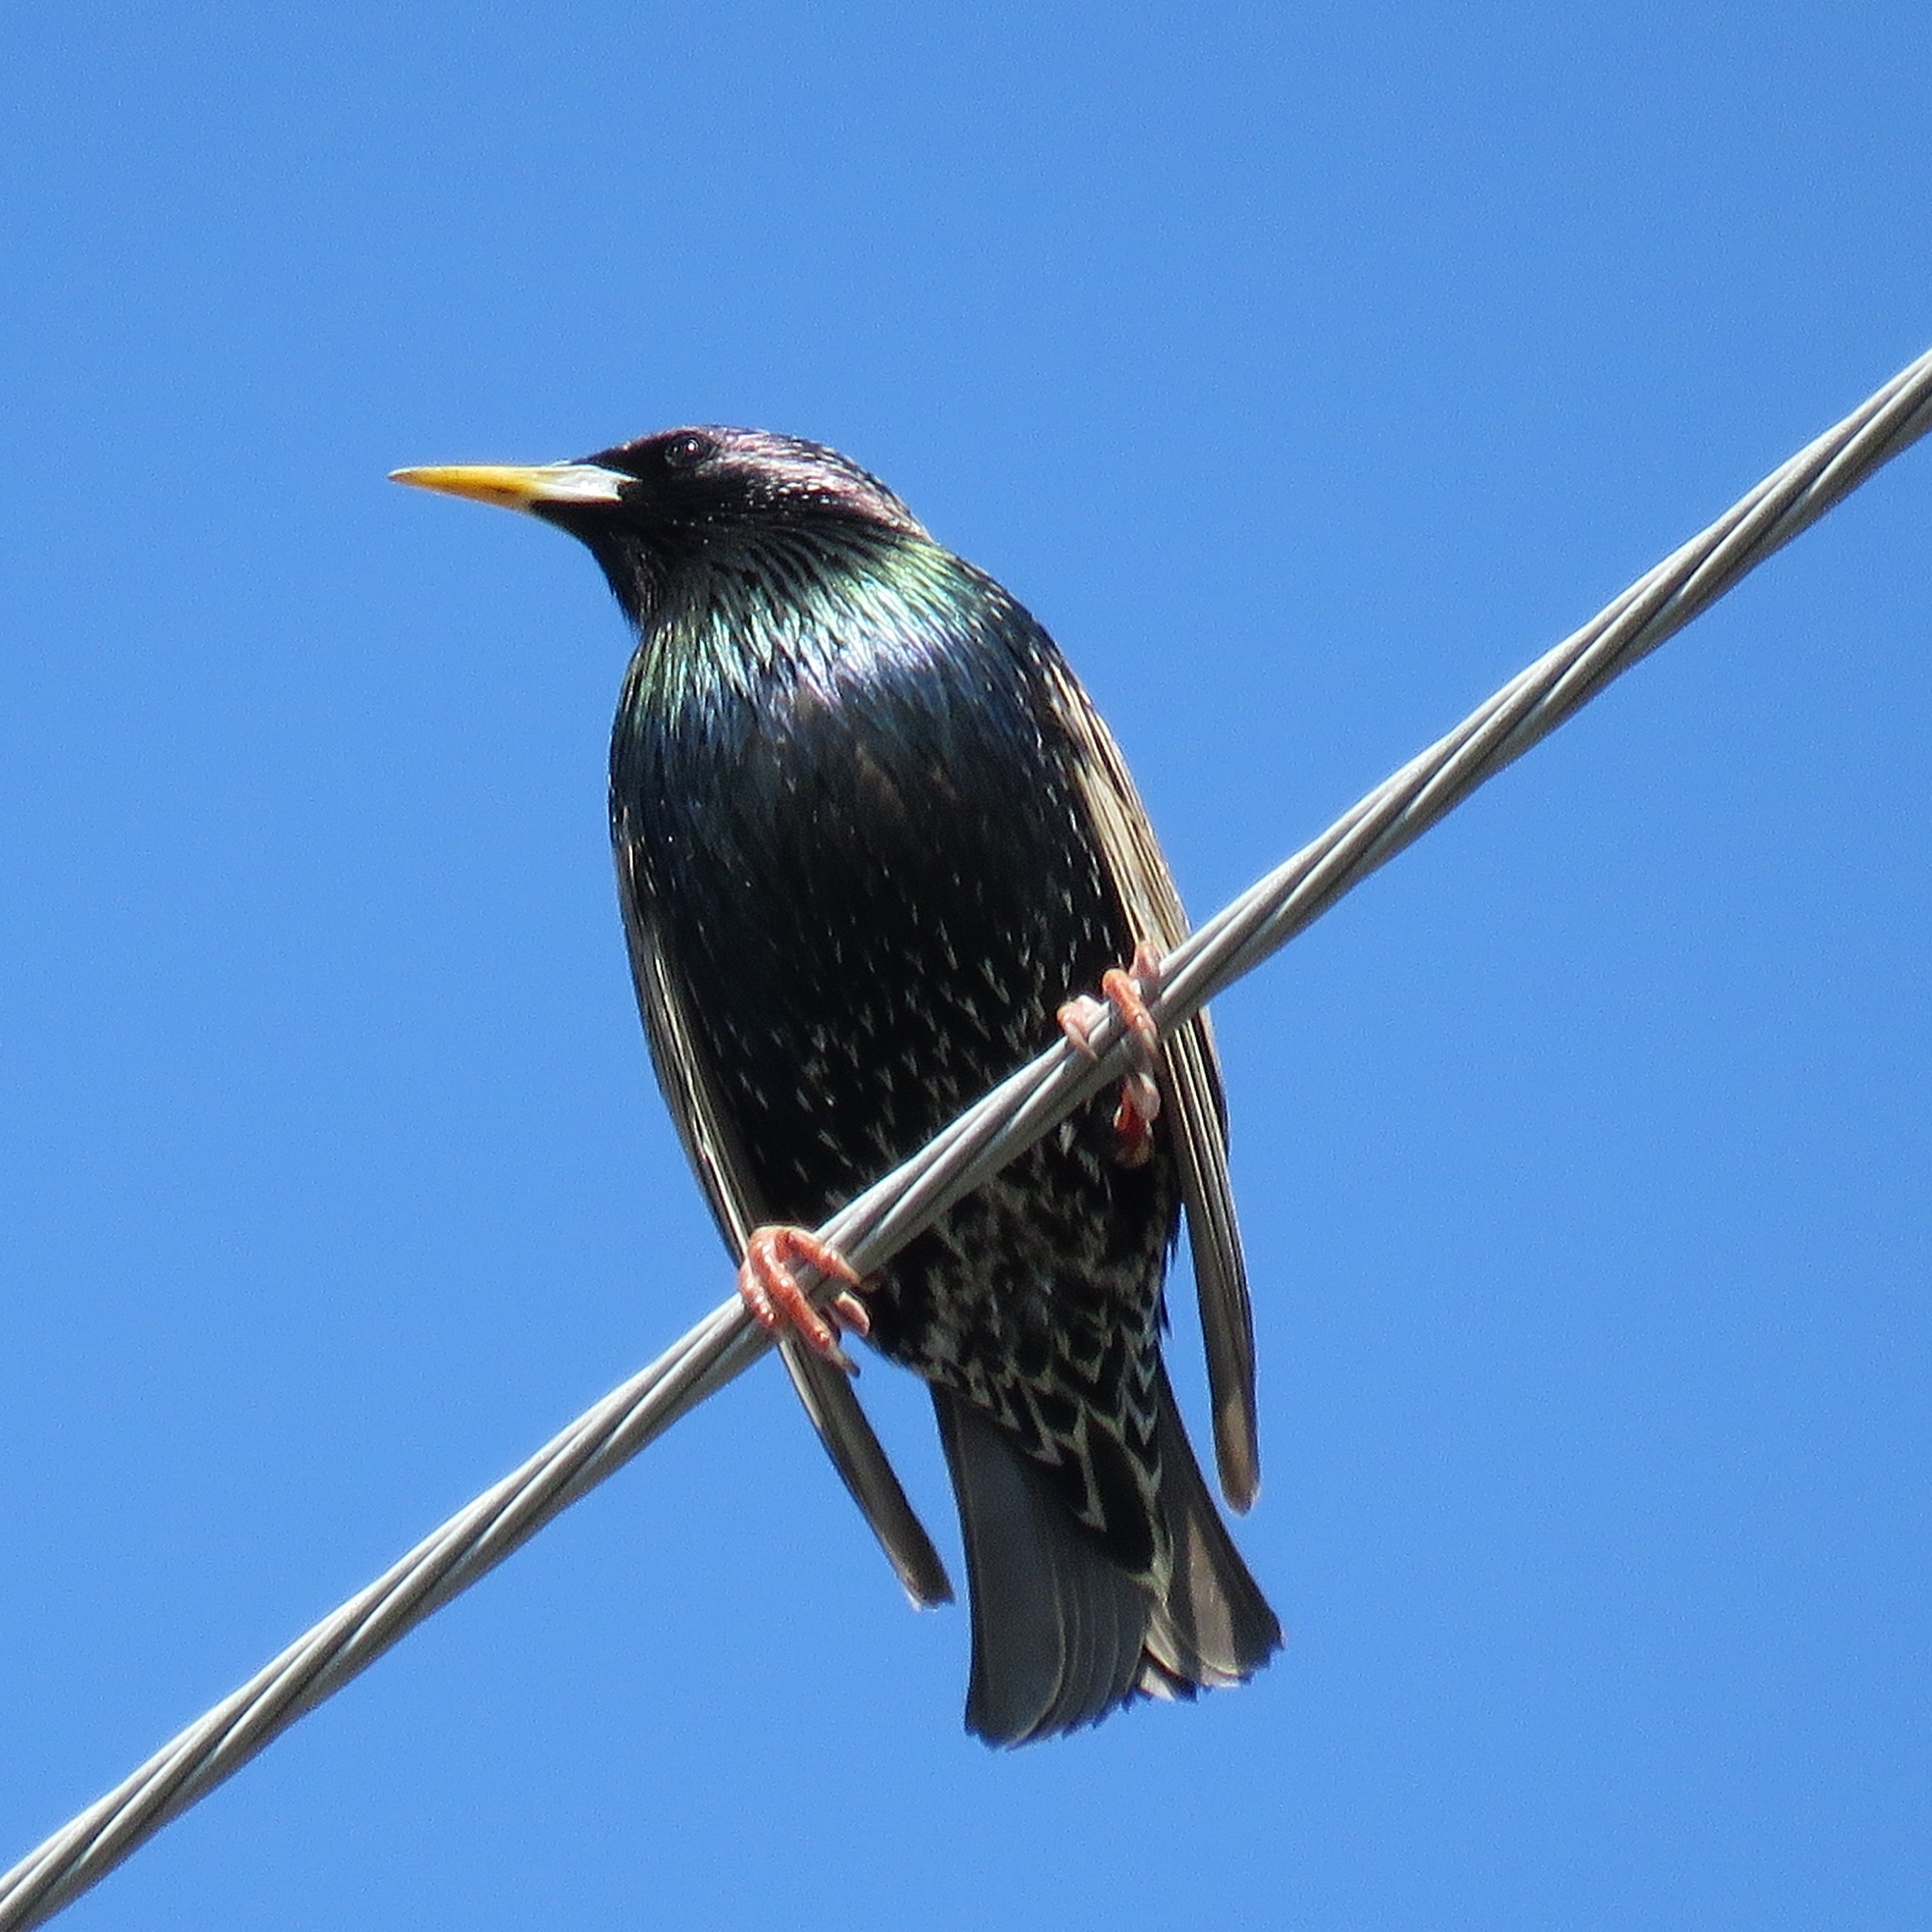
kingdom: Animalia
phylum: Chordata
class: Aves
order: Passeriformes
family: Sturnidae
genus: Sturnus
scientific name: Sturnus vulgaris
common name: Common starling
